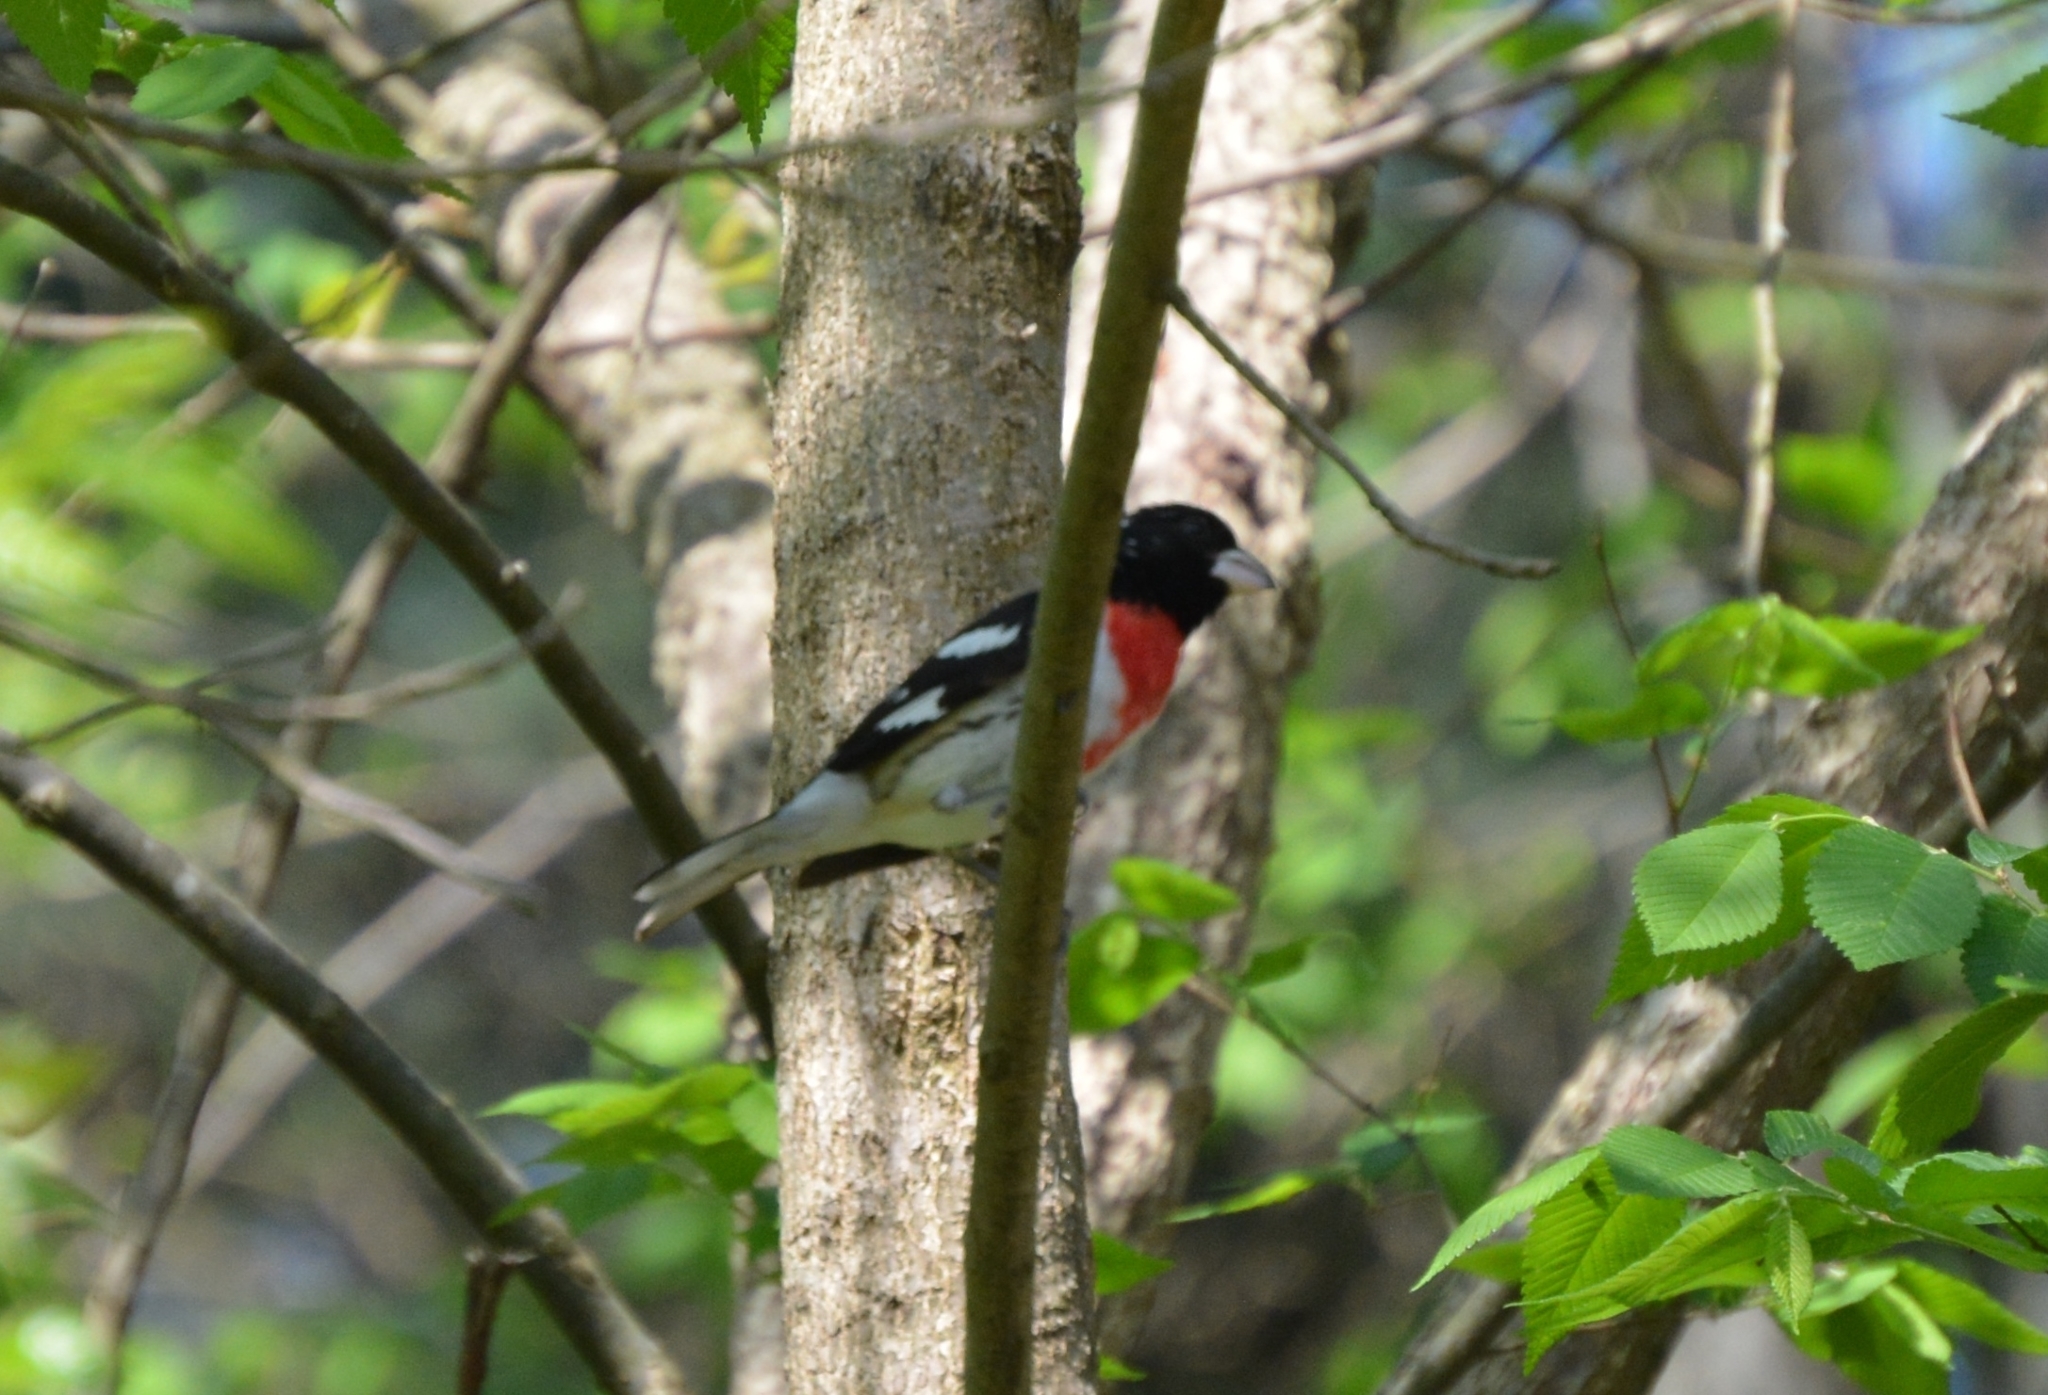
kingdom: Animalia
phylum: Chordata
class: Aves
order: Passeriformes
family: Cardinalidae
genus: Pheucticus
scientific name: Pheucticus ludovicianus
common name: Rose-breasted grosbeak
